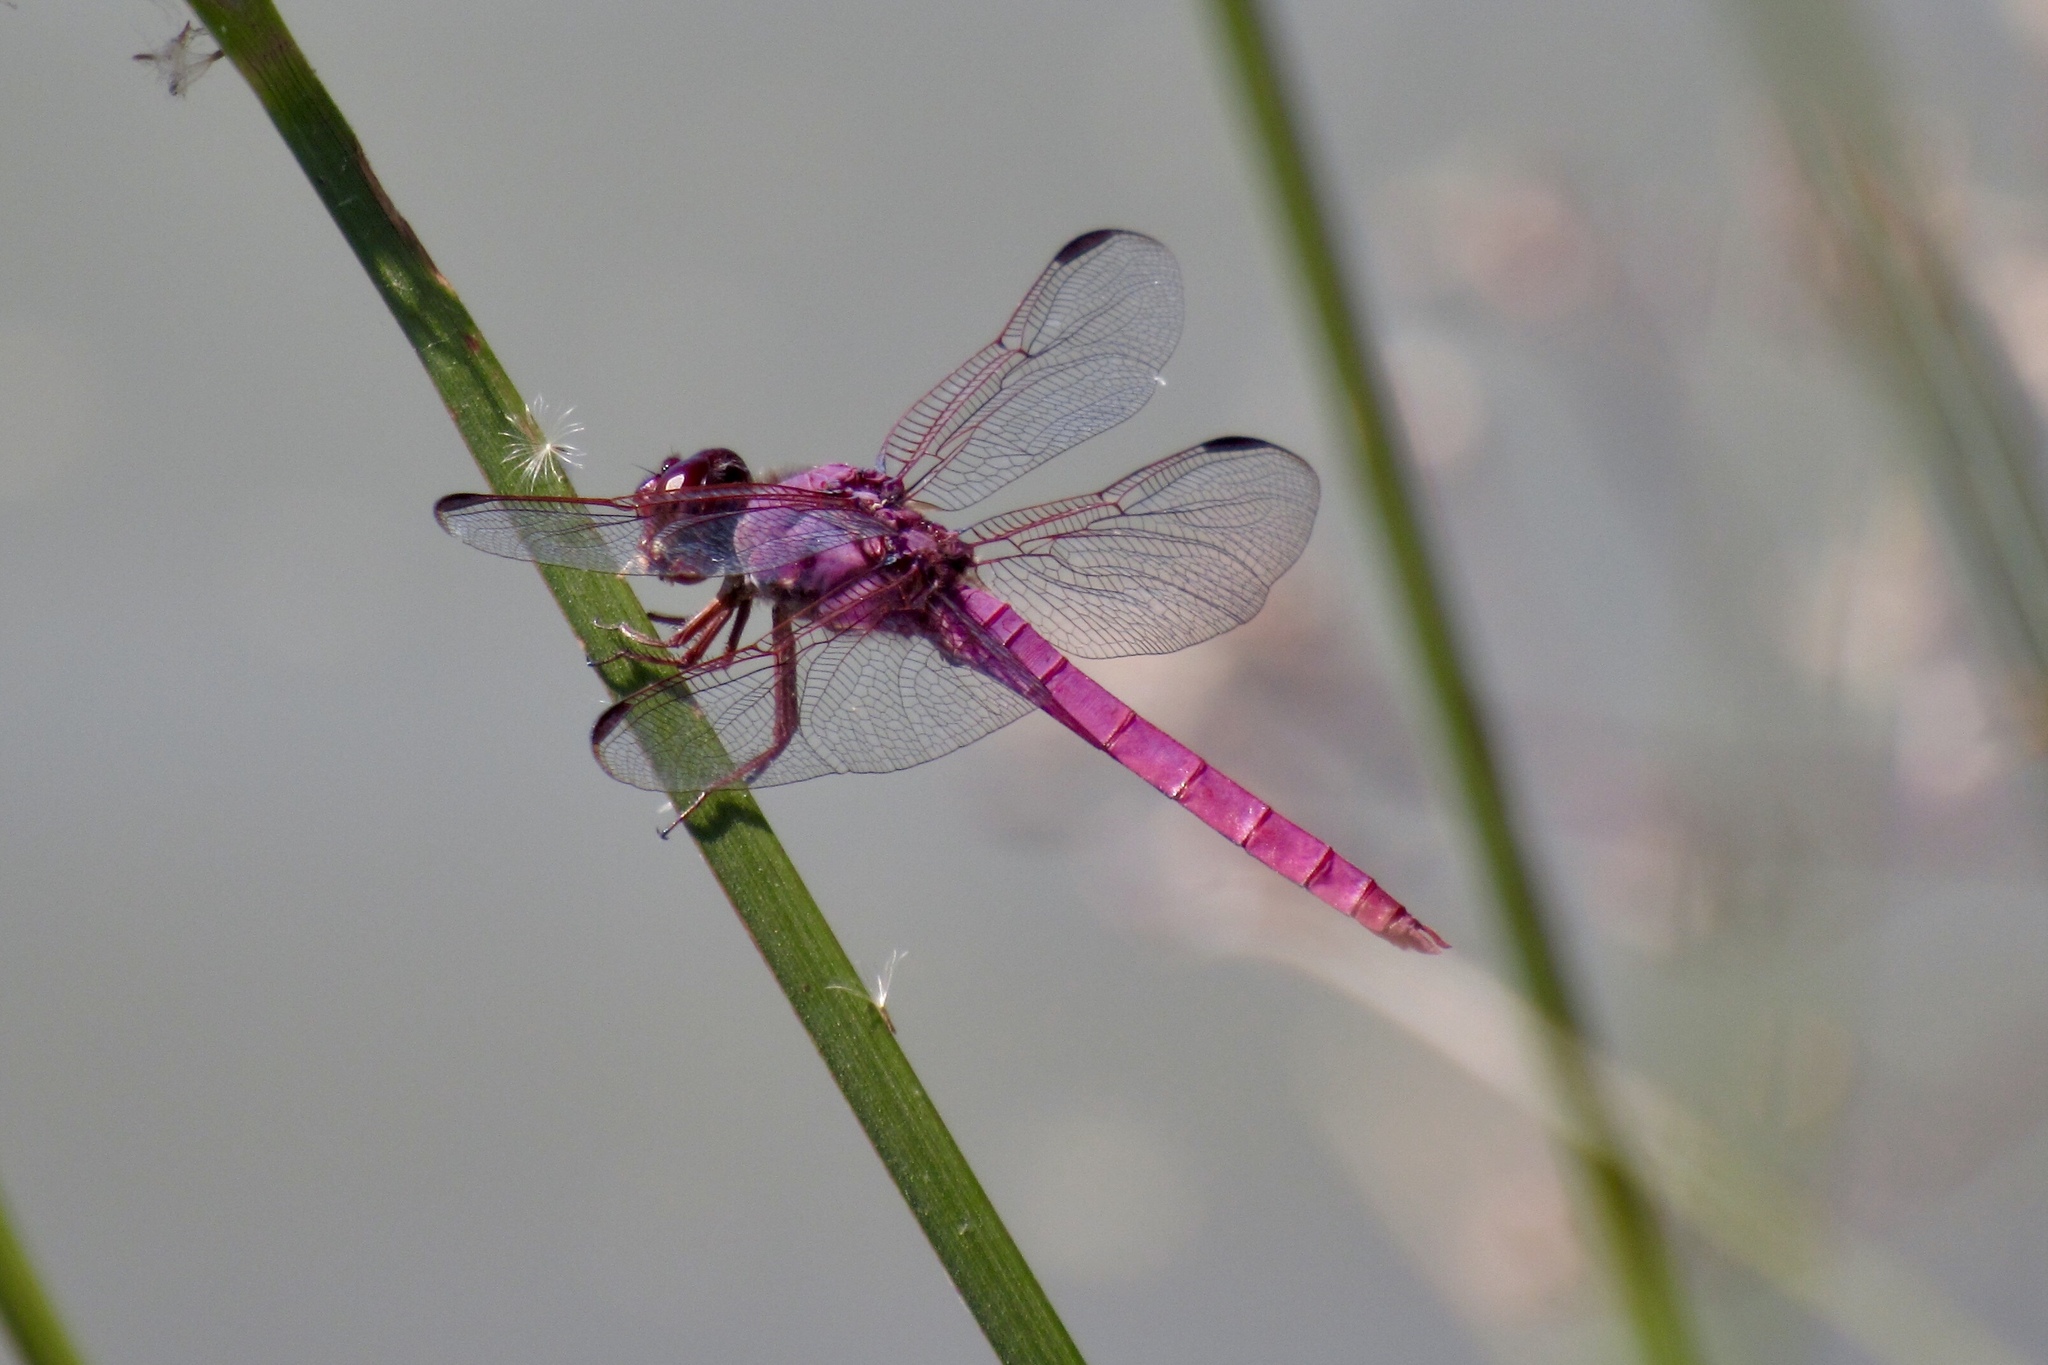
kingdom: Animalia
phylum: Arthropoda
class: Insecta
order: Odonata
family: Libellulidae
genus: Orthemis
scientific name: Orthemis ferruginea
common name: Roseate skimmer
